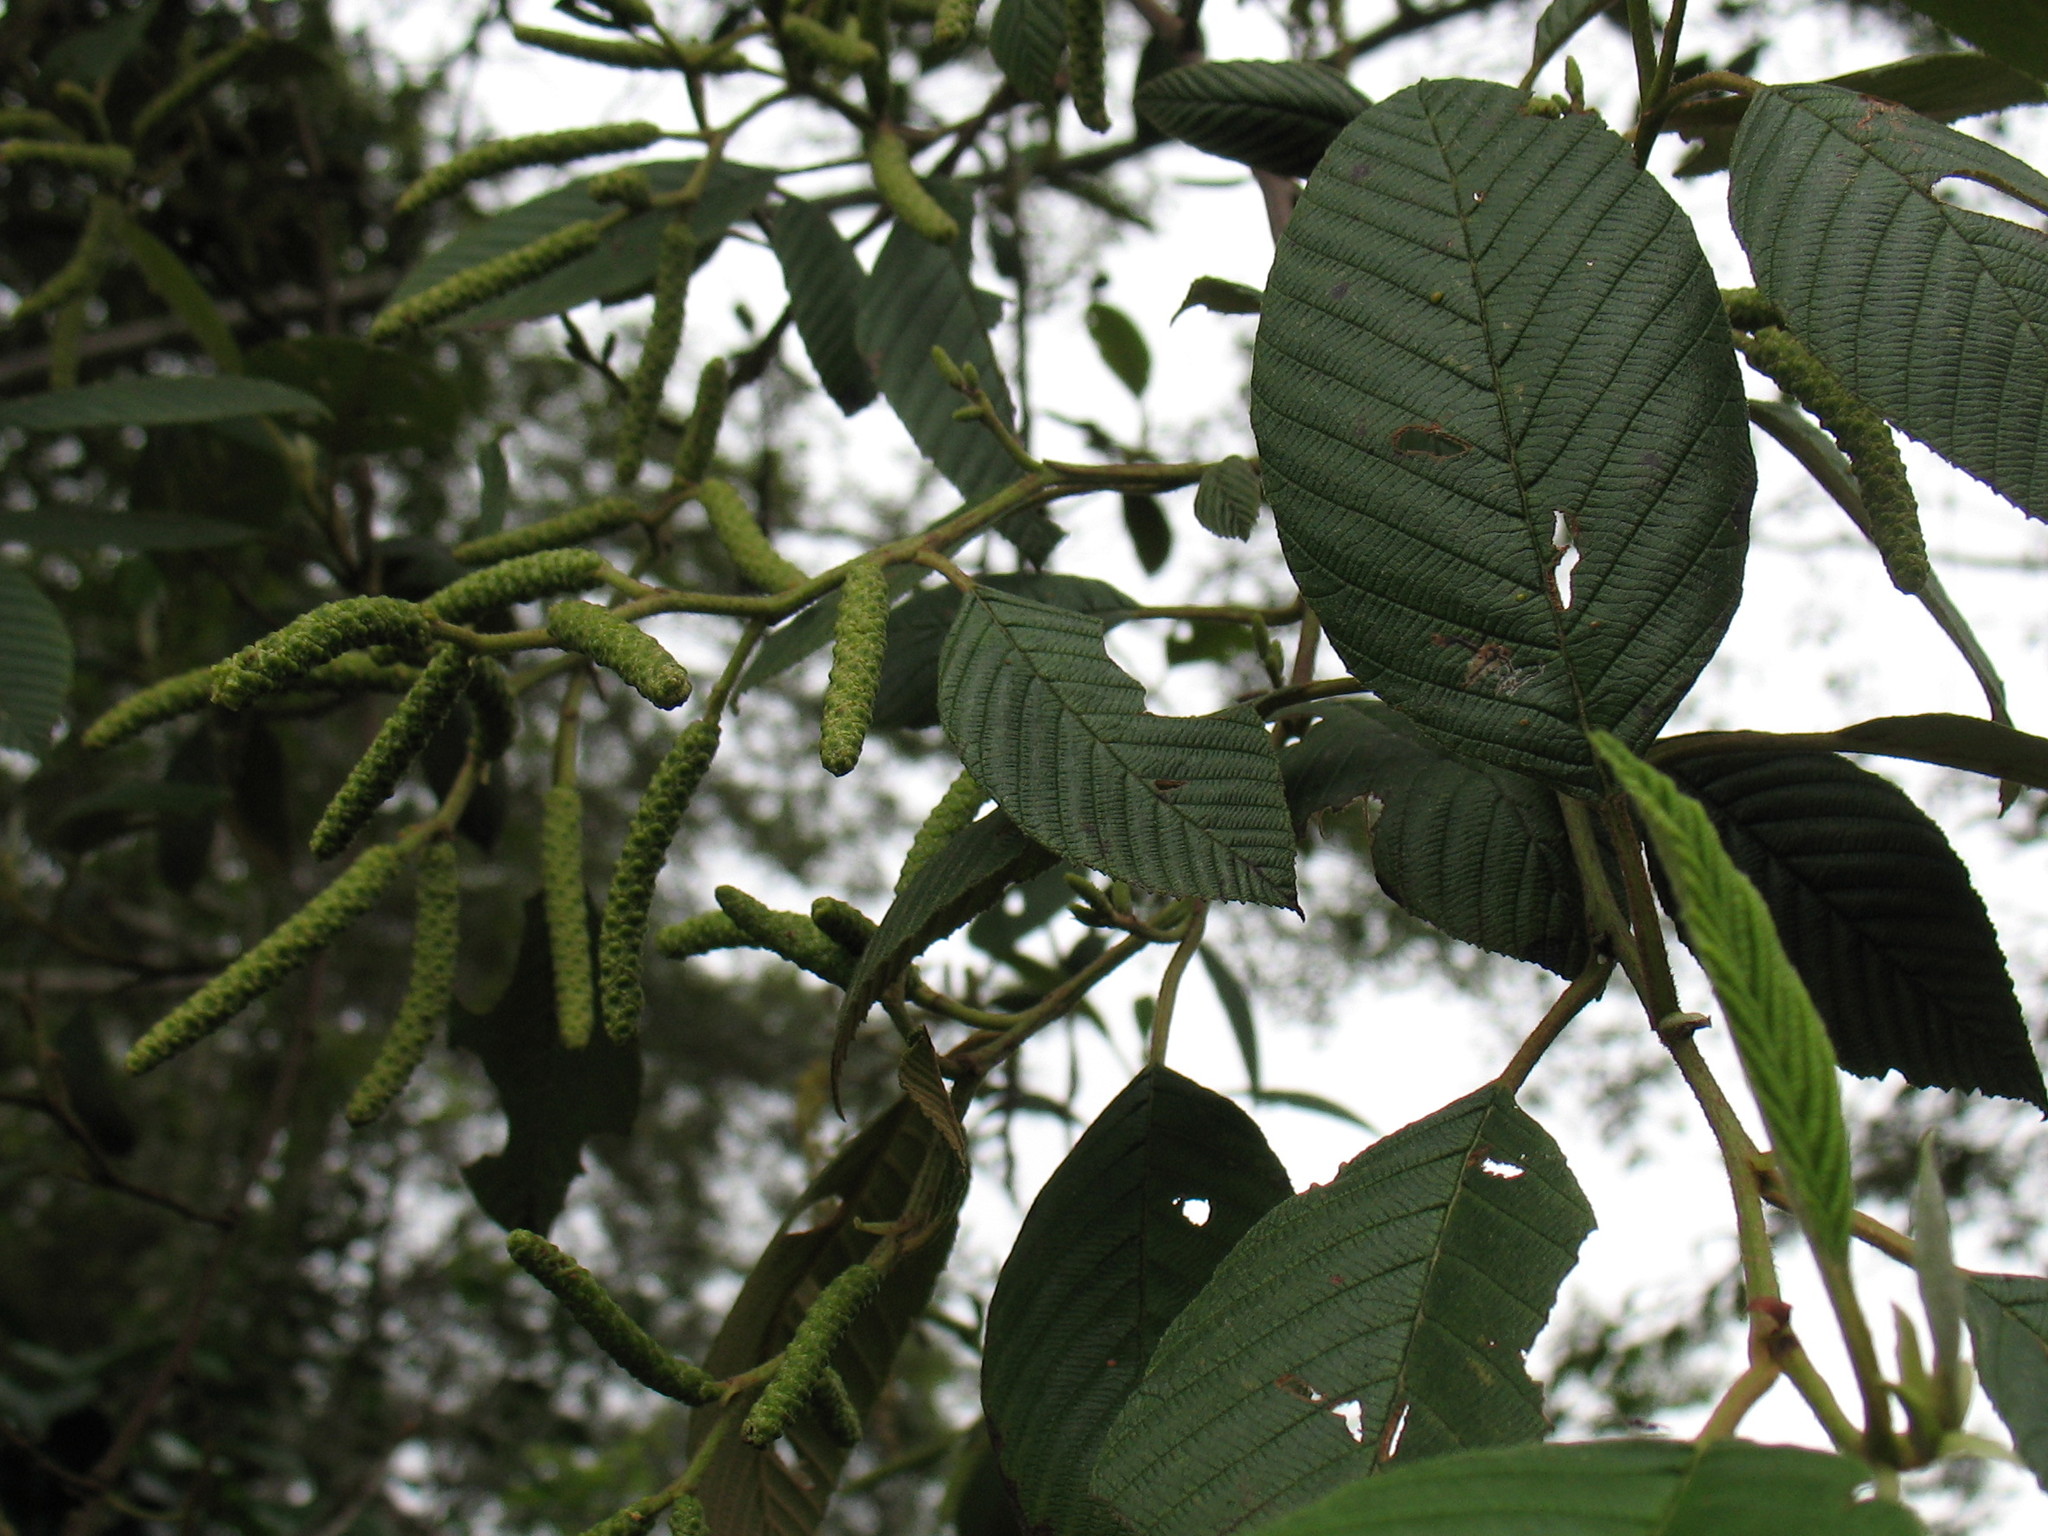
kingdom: Plantae
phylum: Tracheophyta
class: Magnoliopsida
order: Fagales
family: Betulaceae
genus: Alnus
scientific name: Alnus acuminata
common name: Alder
